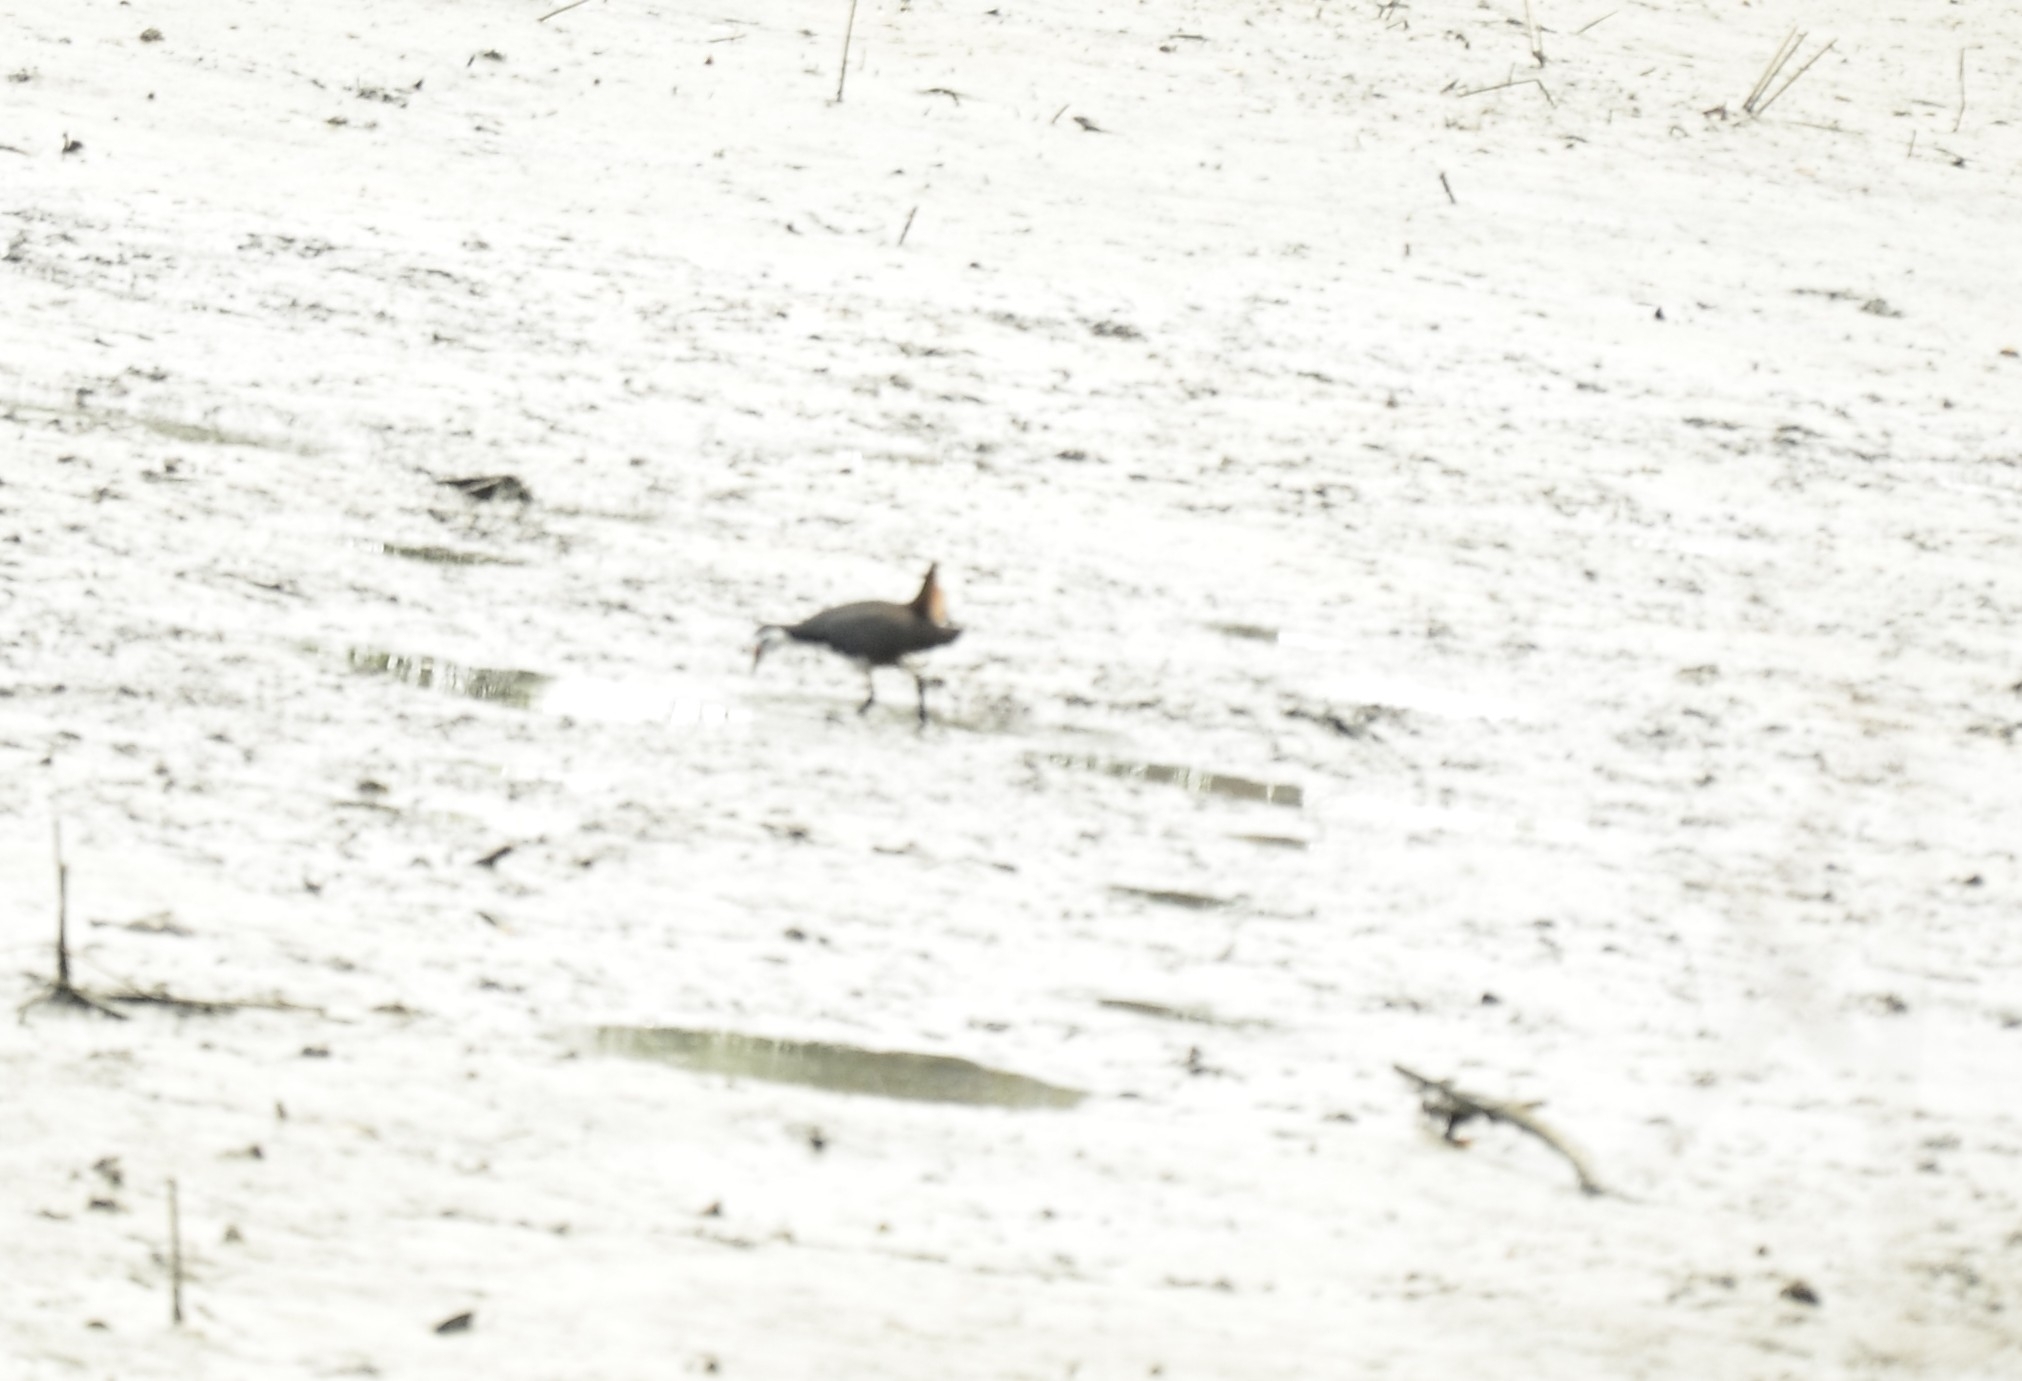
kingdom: Animalia
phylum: Chordata
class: Aves
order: Gruiformes
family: Rallidae
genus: Amaurornis
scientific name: Amaurornis phoenicurus
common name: White-breasted waterhen
